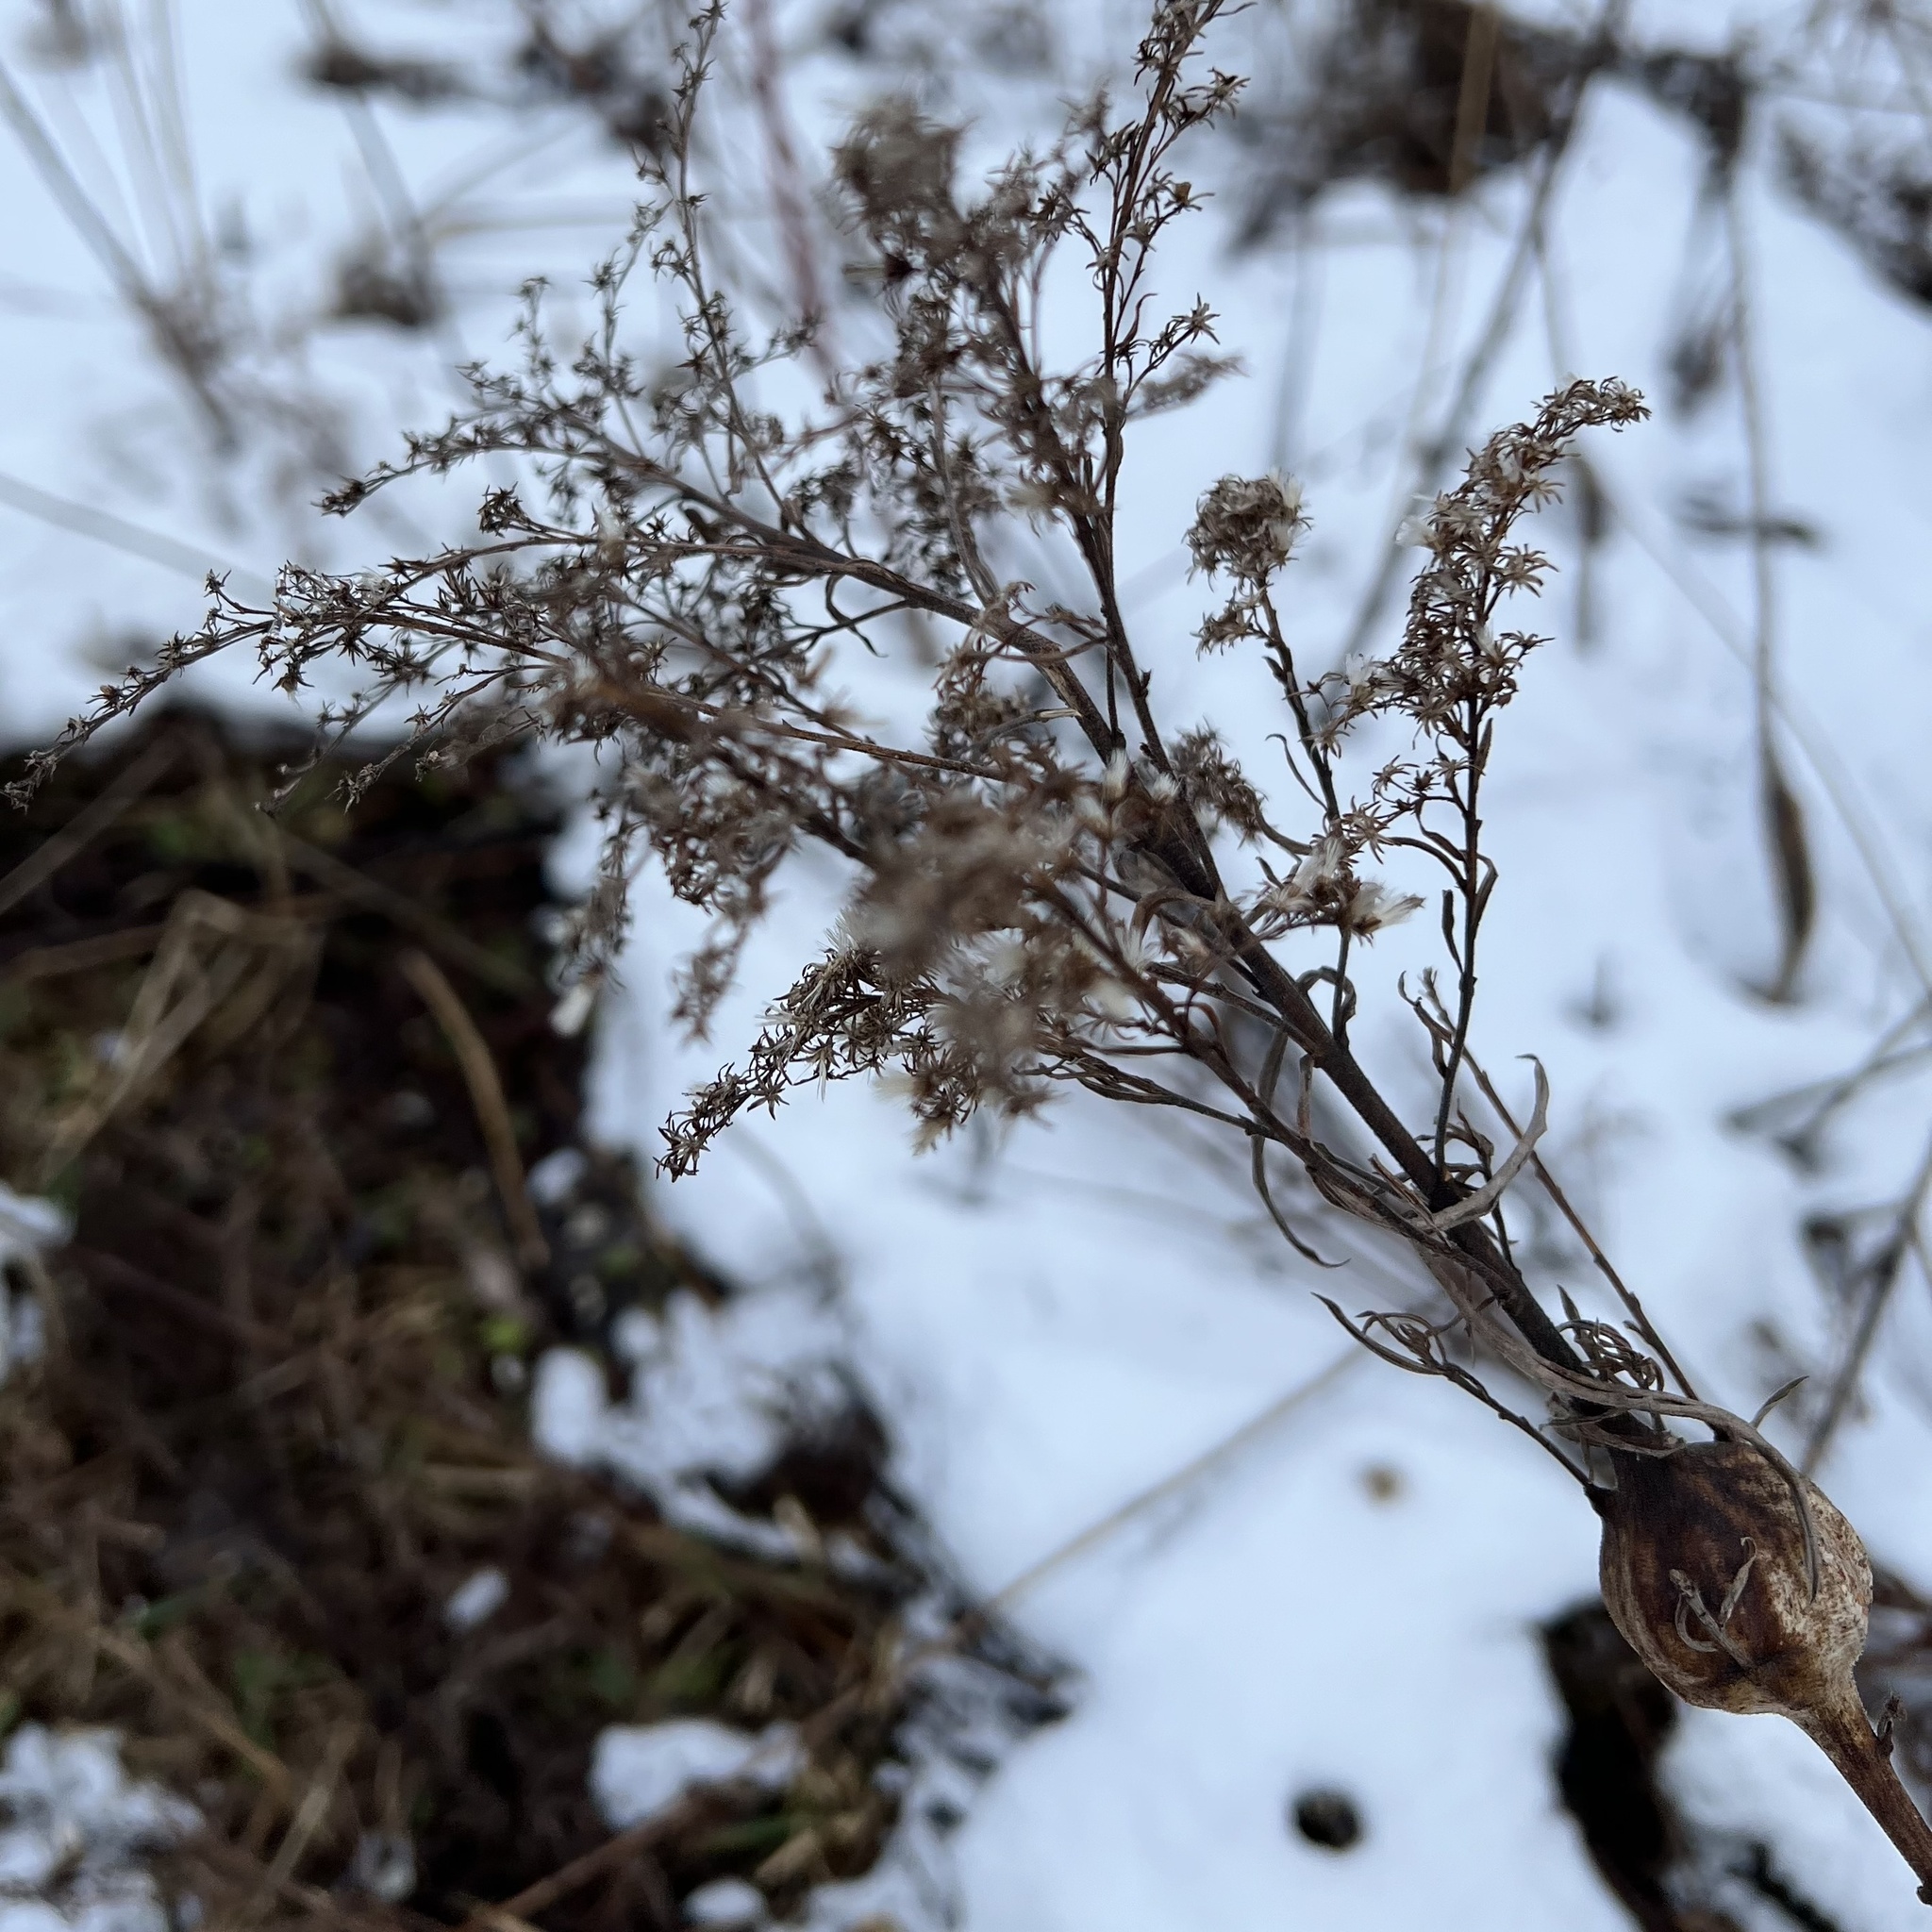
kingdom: Animalia
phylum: Arthropoda
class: Insecta
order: Diptera
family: Tephritidae
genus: Eurosta
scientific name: Eurosta solidaginis
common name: Goldenrod gall fly
